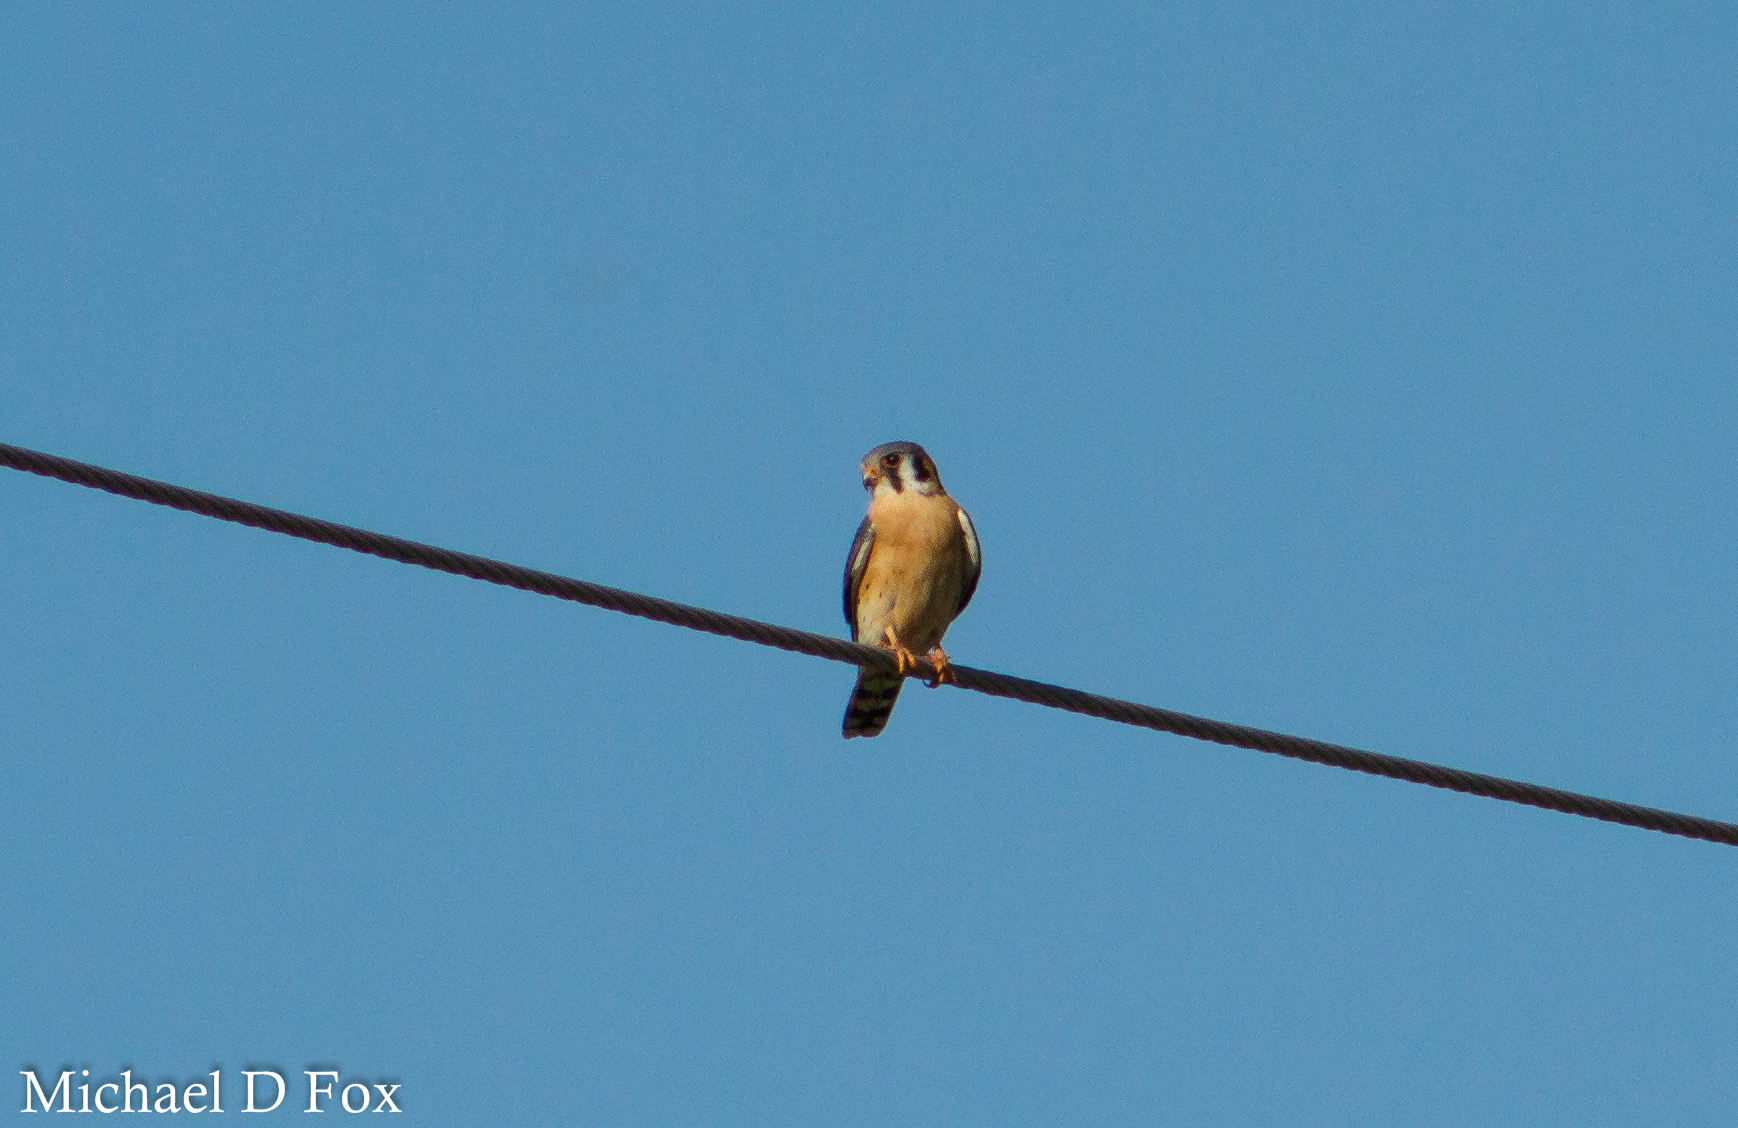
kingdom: Animalia
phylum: Chordata
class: Aves
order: Falconiformes
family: Falconidae
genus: Falco
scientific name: Falco sparverius
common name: American kestrel
